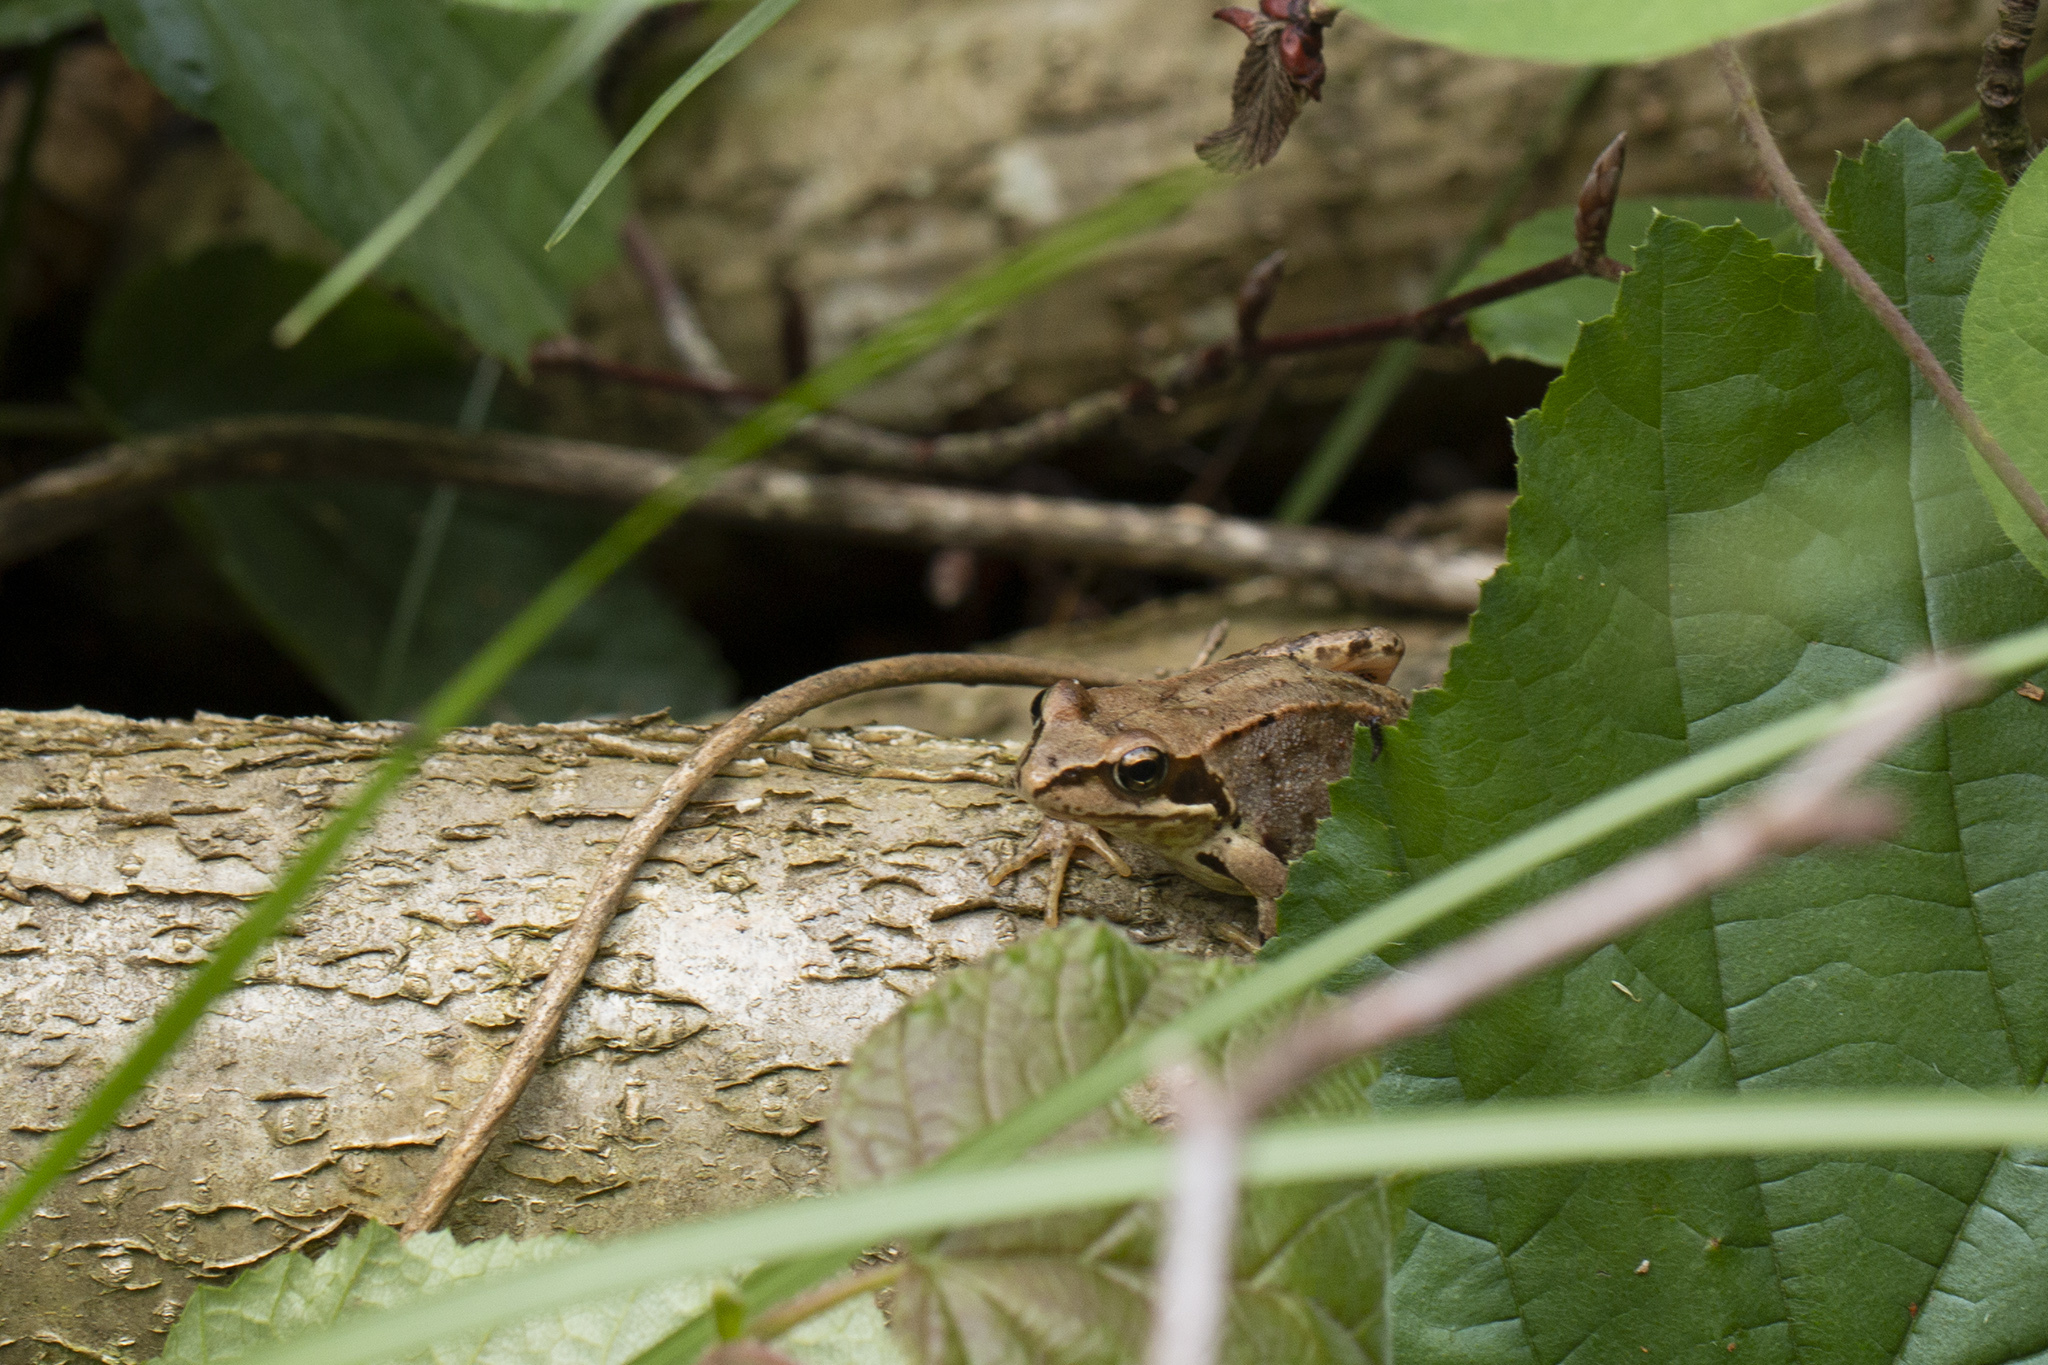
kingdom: Animalia
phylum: Chordata
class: Amphibia
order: Anura
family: Ranidae
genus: Rana
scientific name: Rana temporaria
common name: Common frog
